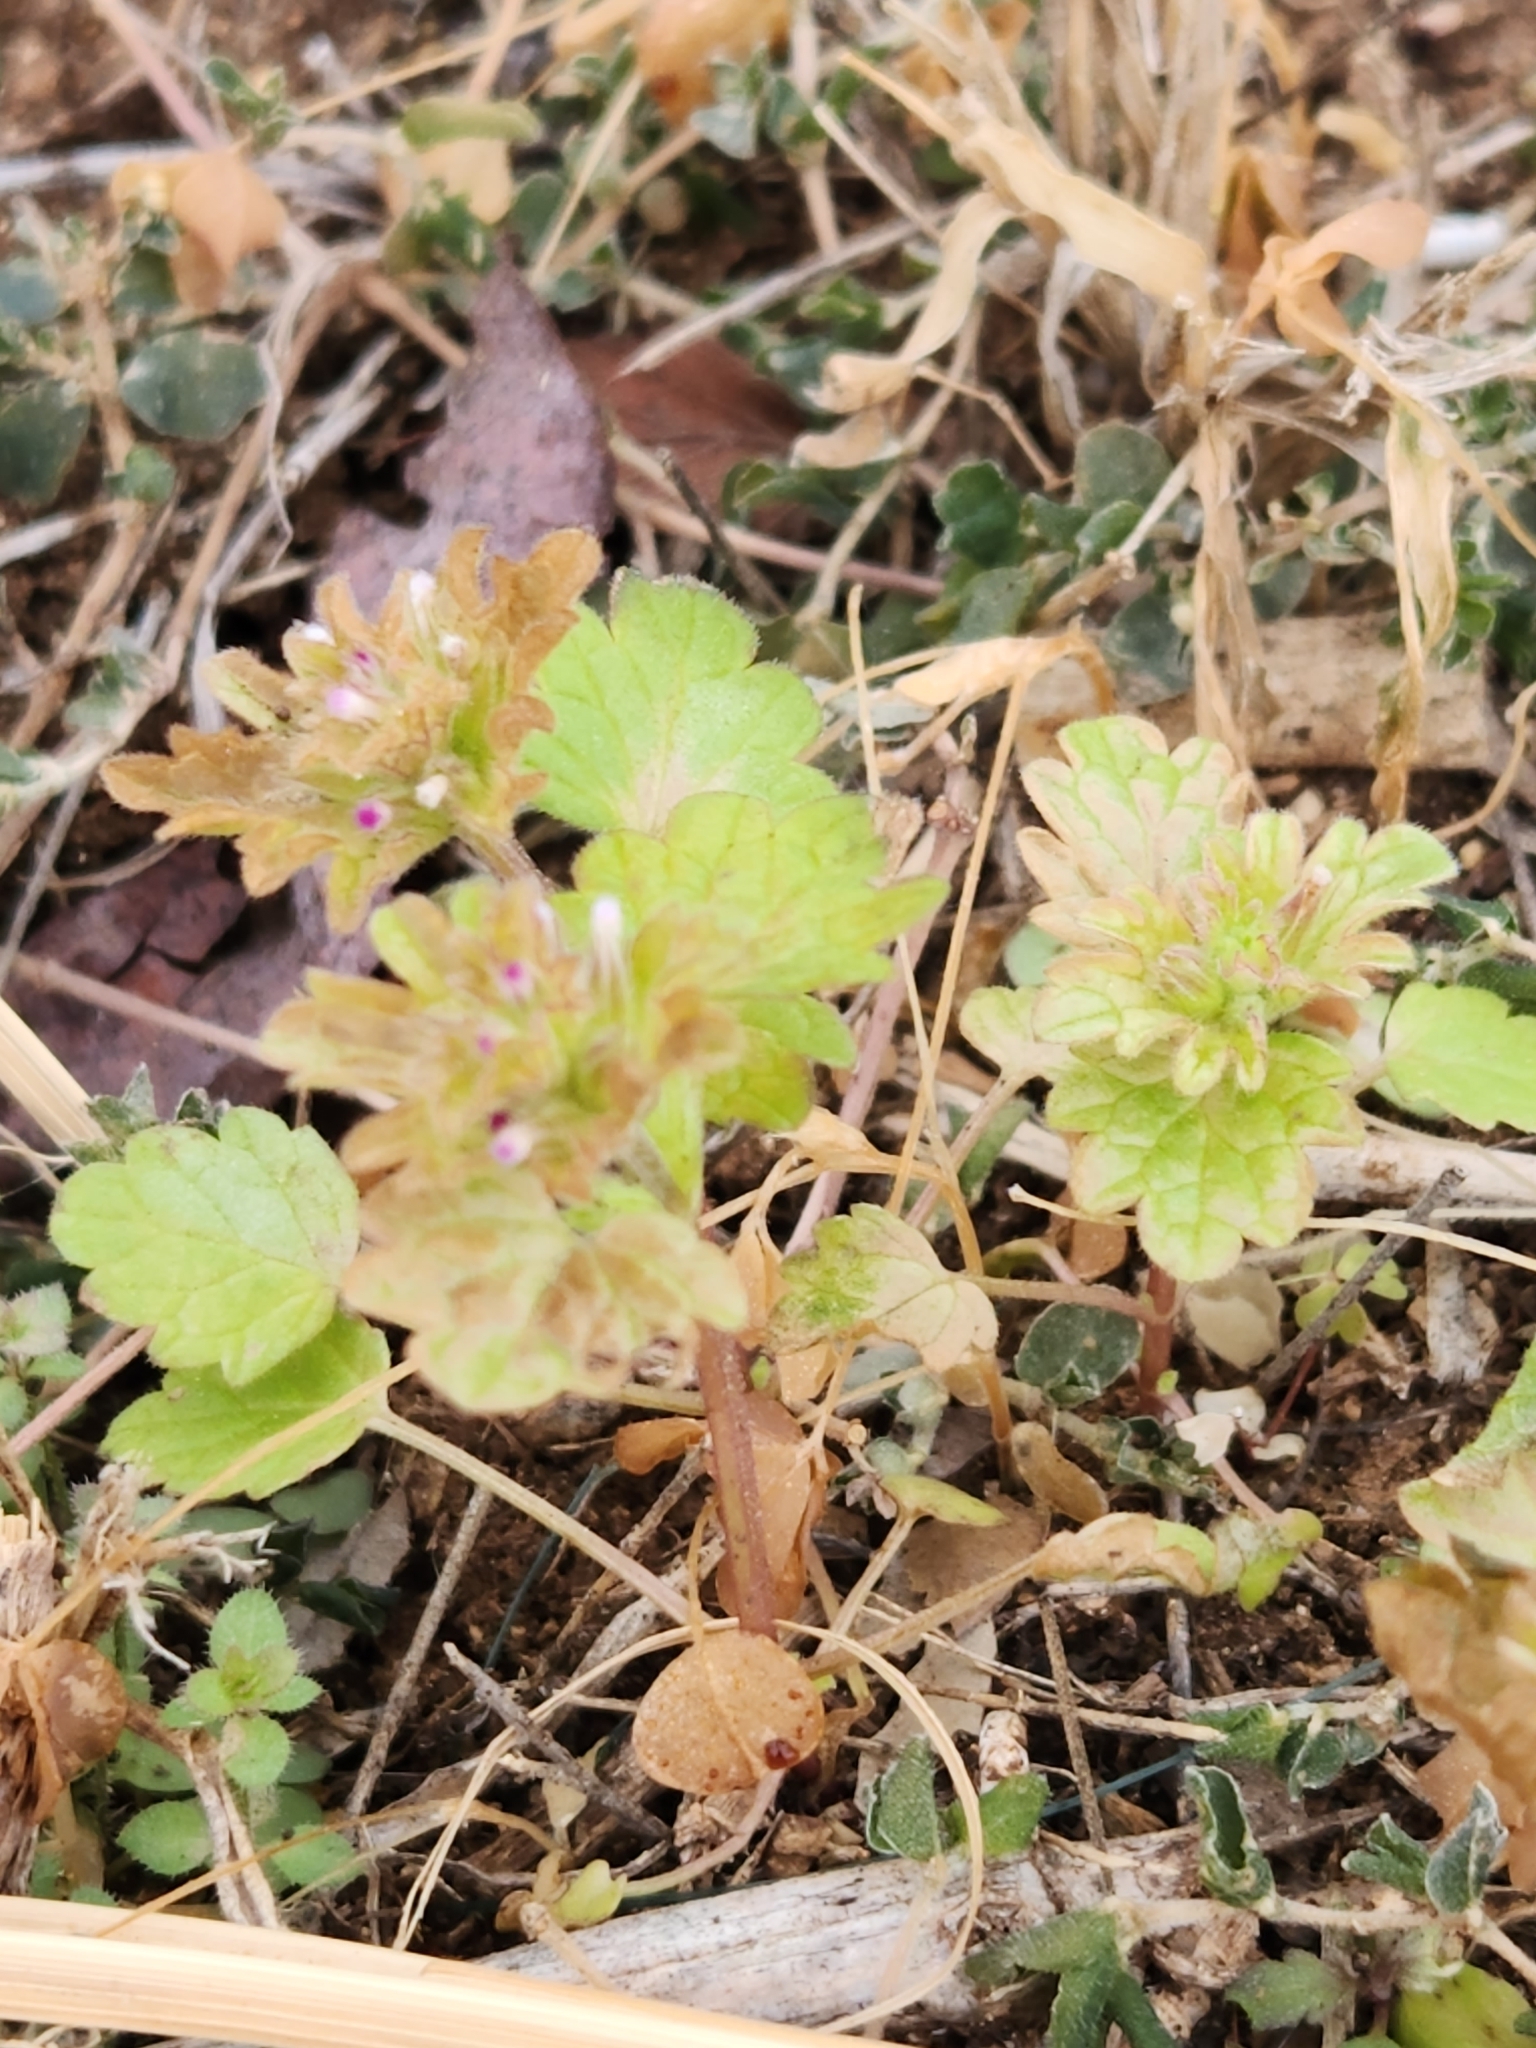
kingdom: Plantae
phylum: Tracheophyta
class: Magnoliopsida
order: Lamiales
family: Lamiaceae
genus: Lamium
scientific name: Lamium amplexicaule
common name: Henbit dead-nettle
